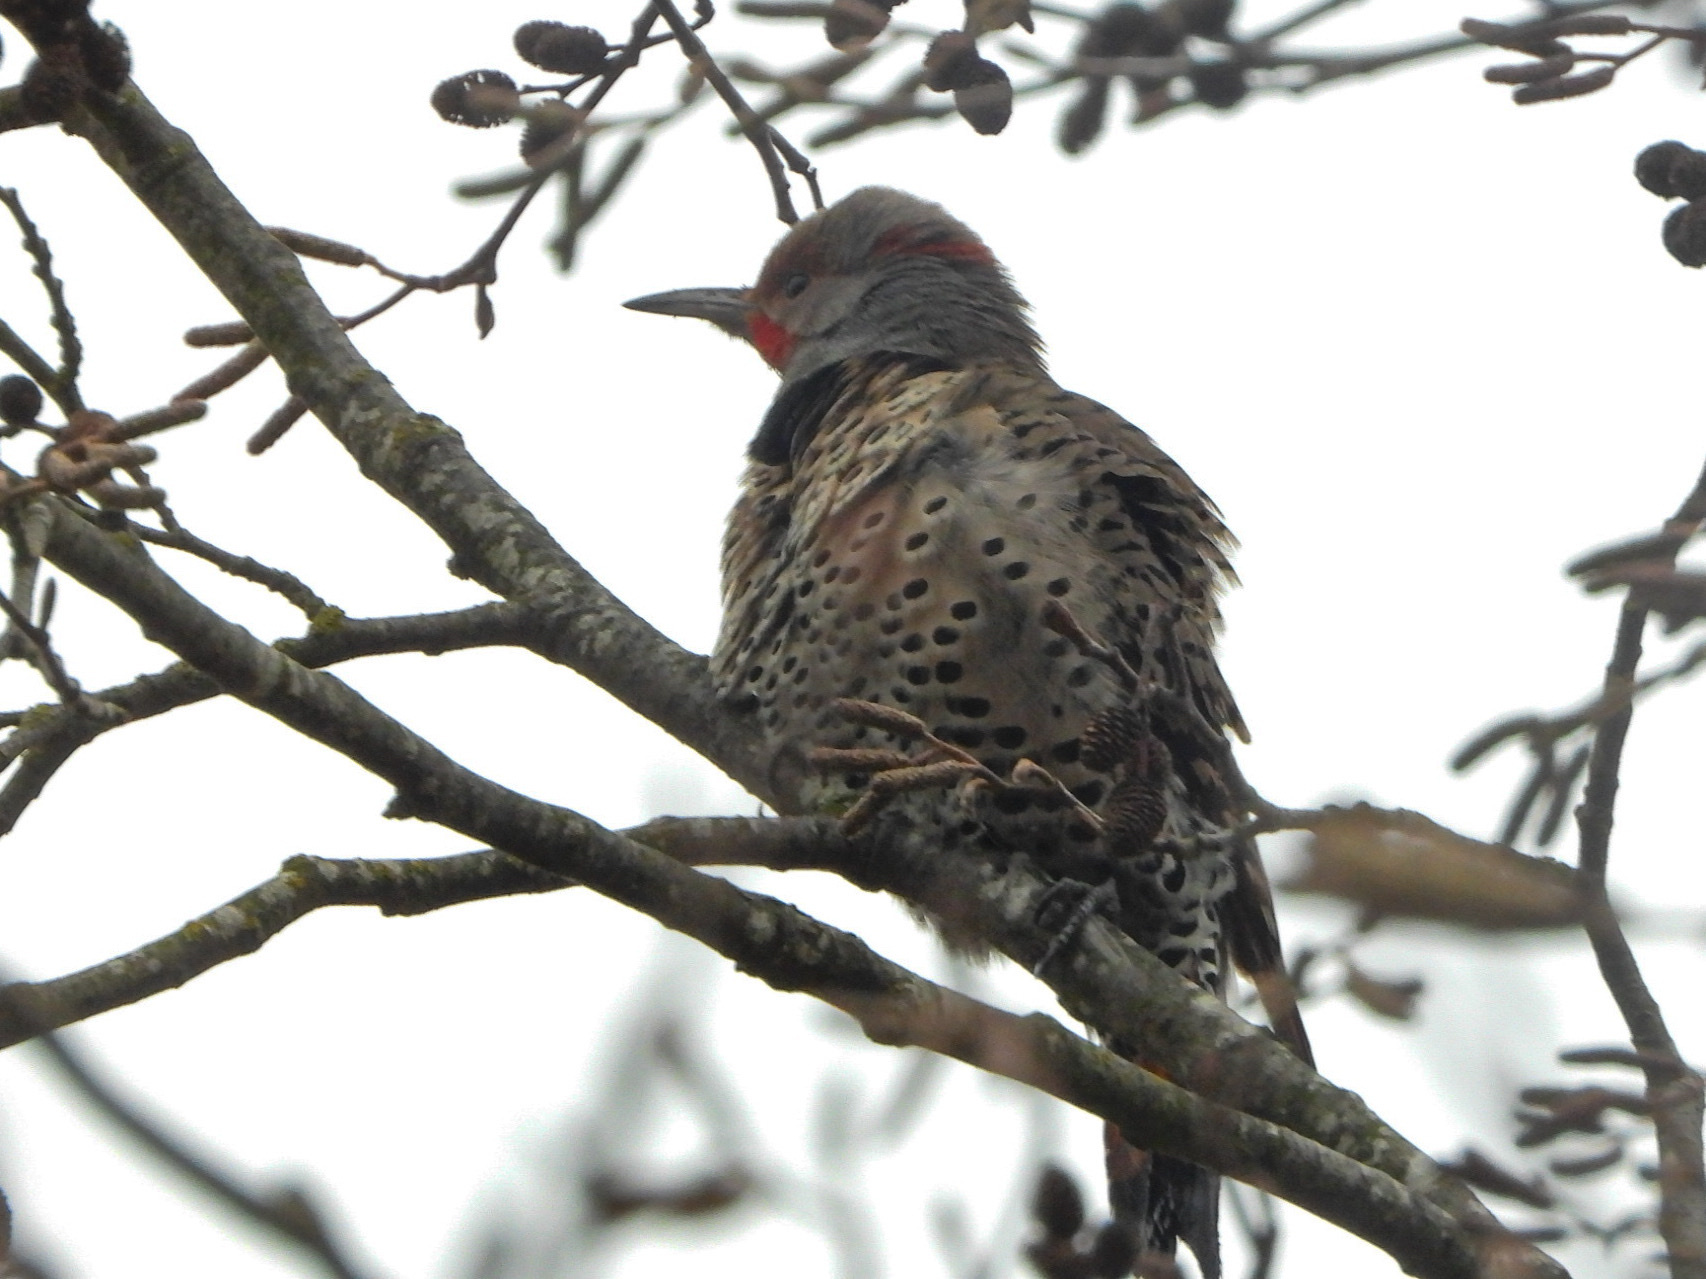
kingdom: Animalia
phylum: Chordata
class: Aves
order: Piciformes
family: Picidae
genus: Colaptes
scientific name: Colaptes
